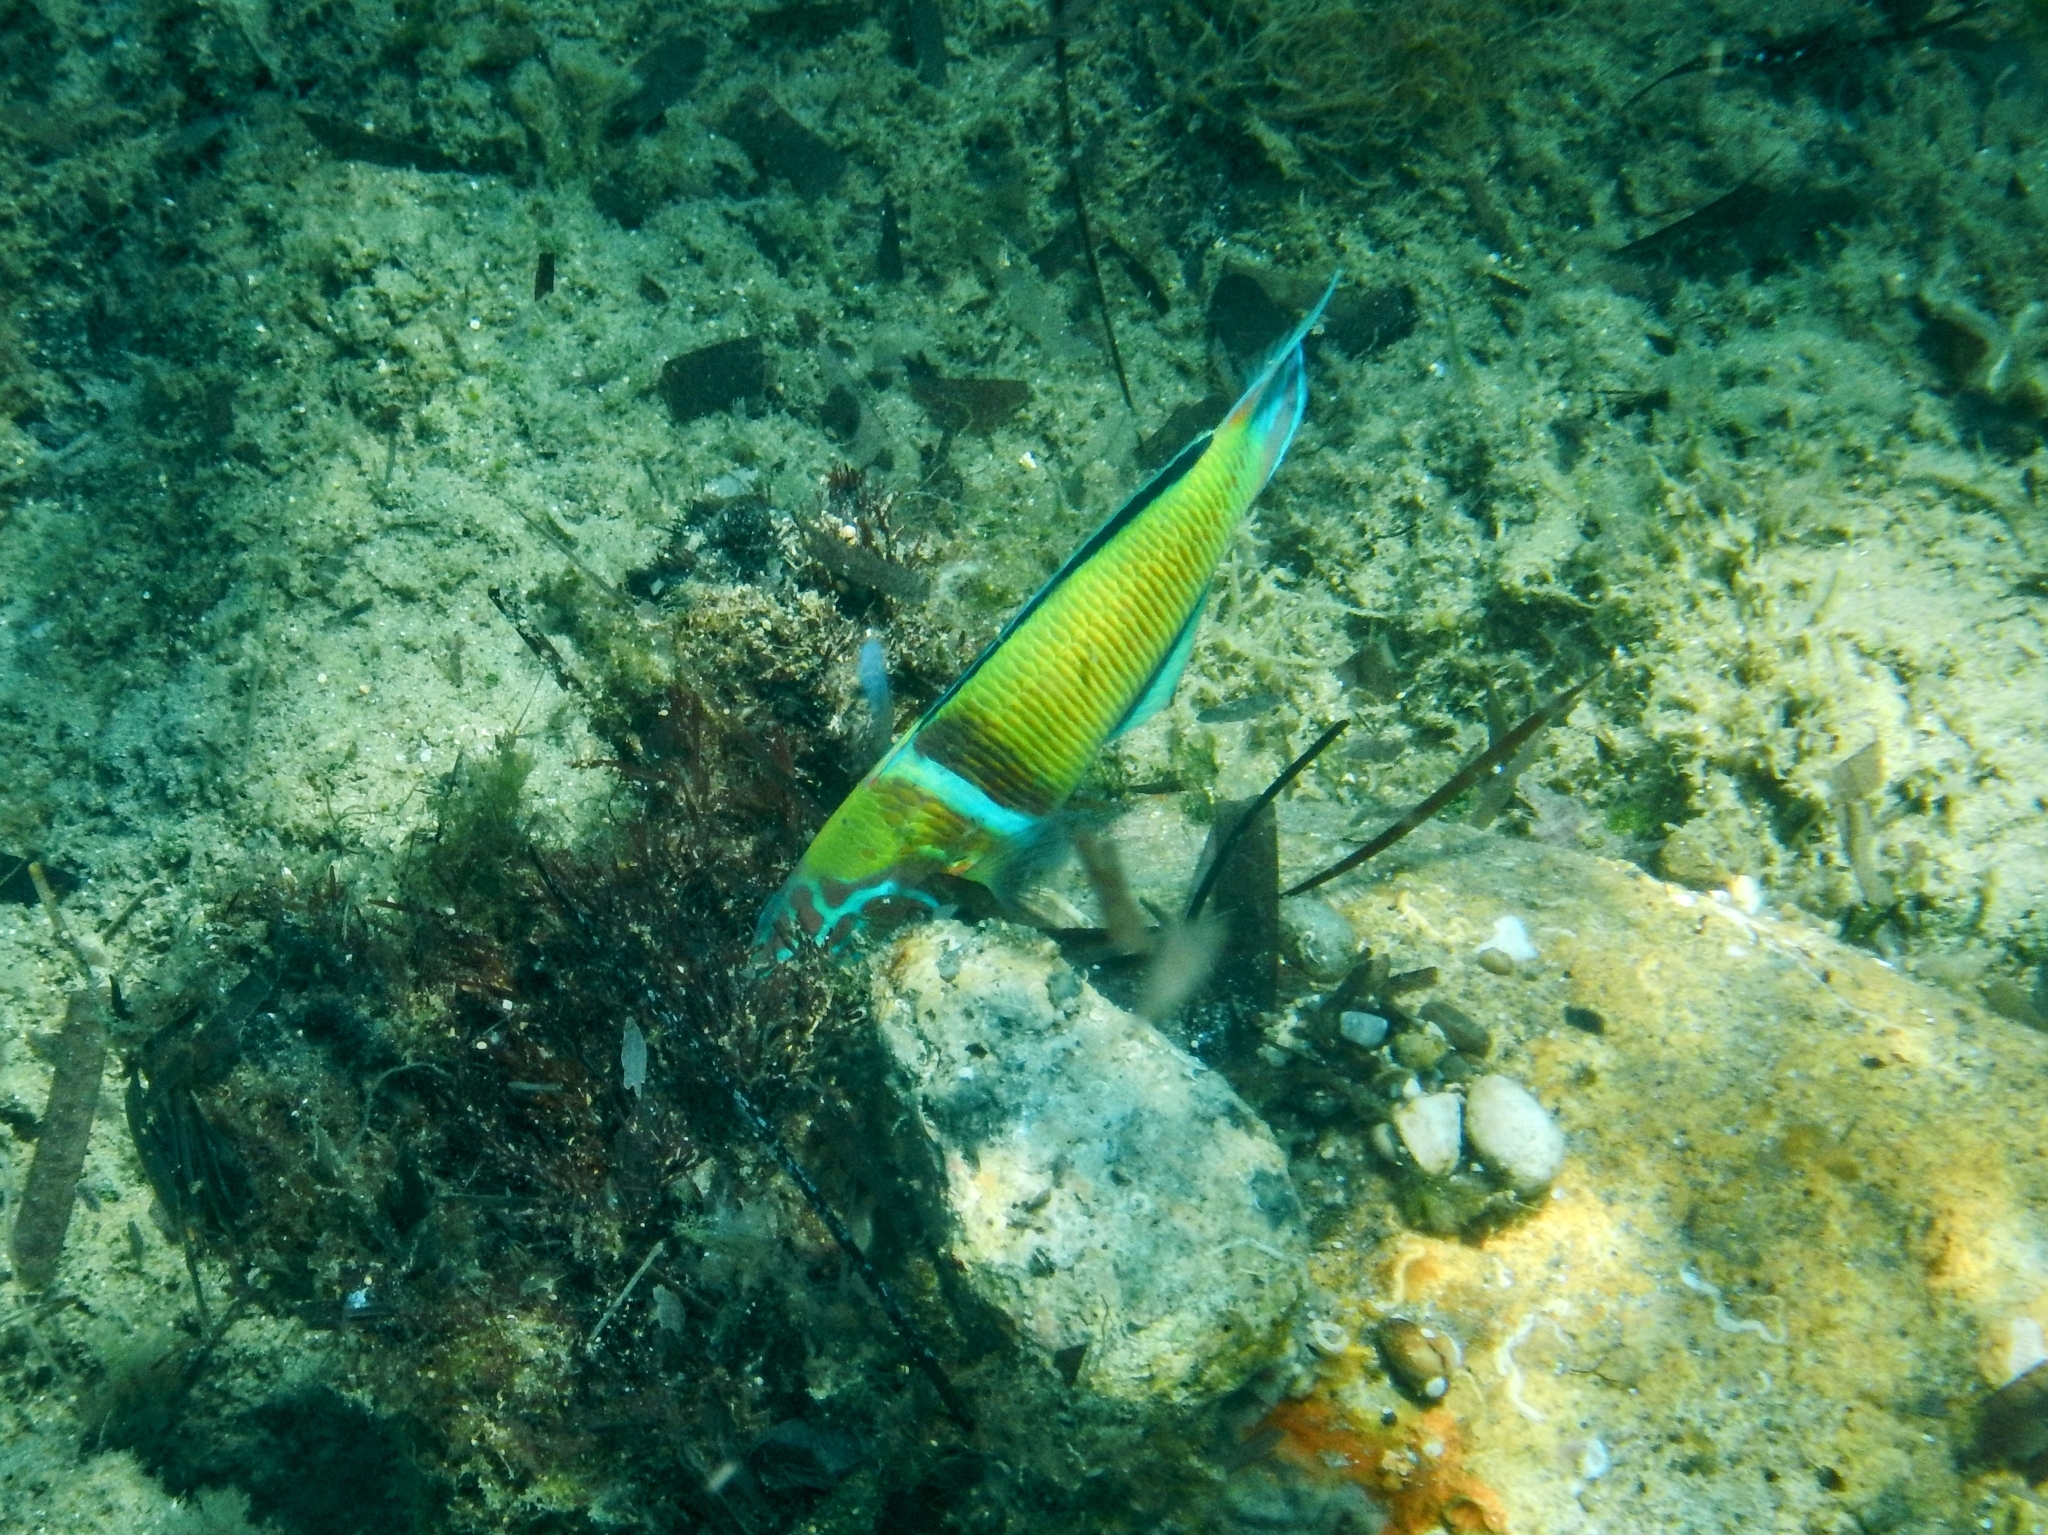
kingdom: Animalia
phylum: Chordata
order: Perciformes
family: Labridae
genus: Thalassoma
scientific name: Thalassoma pavo
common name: Ornate wrasse
